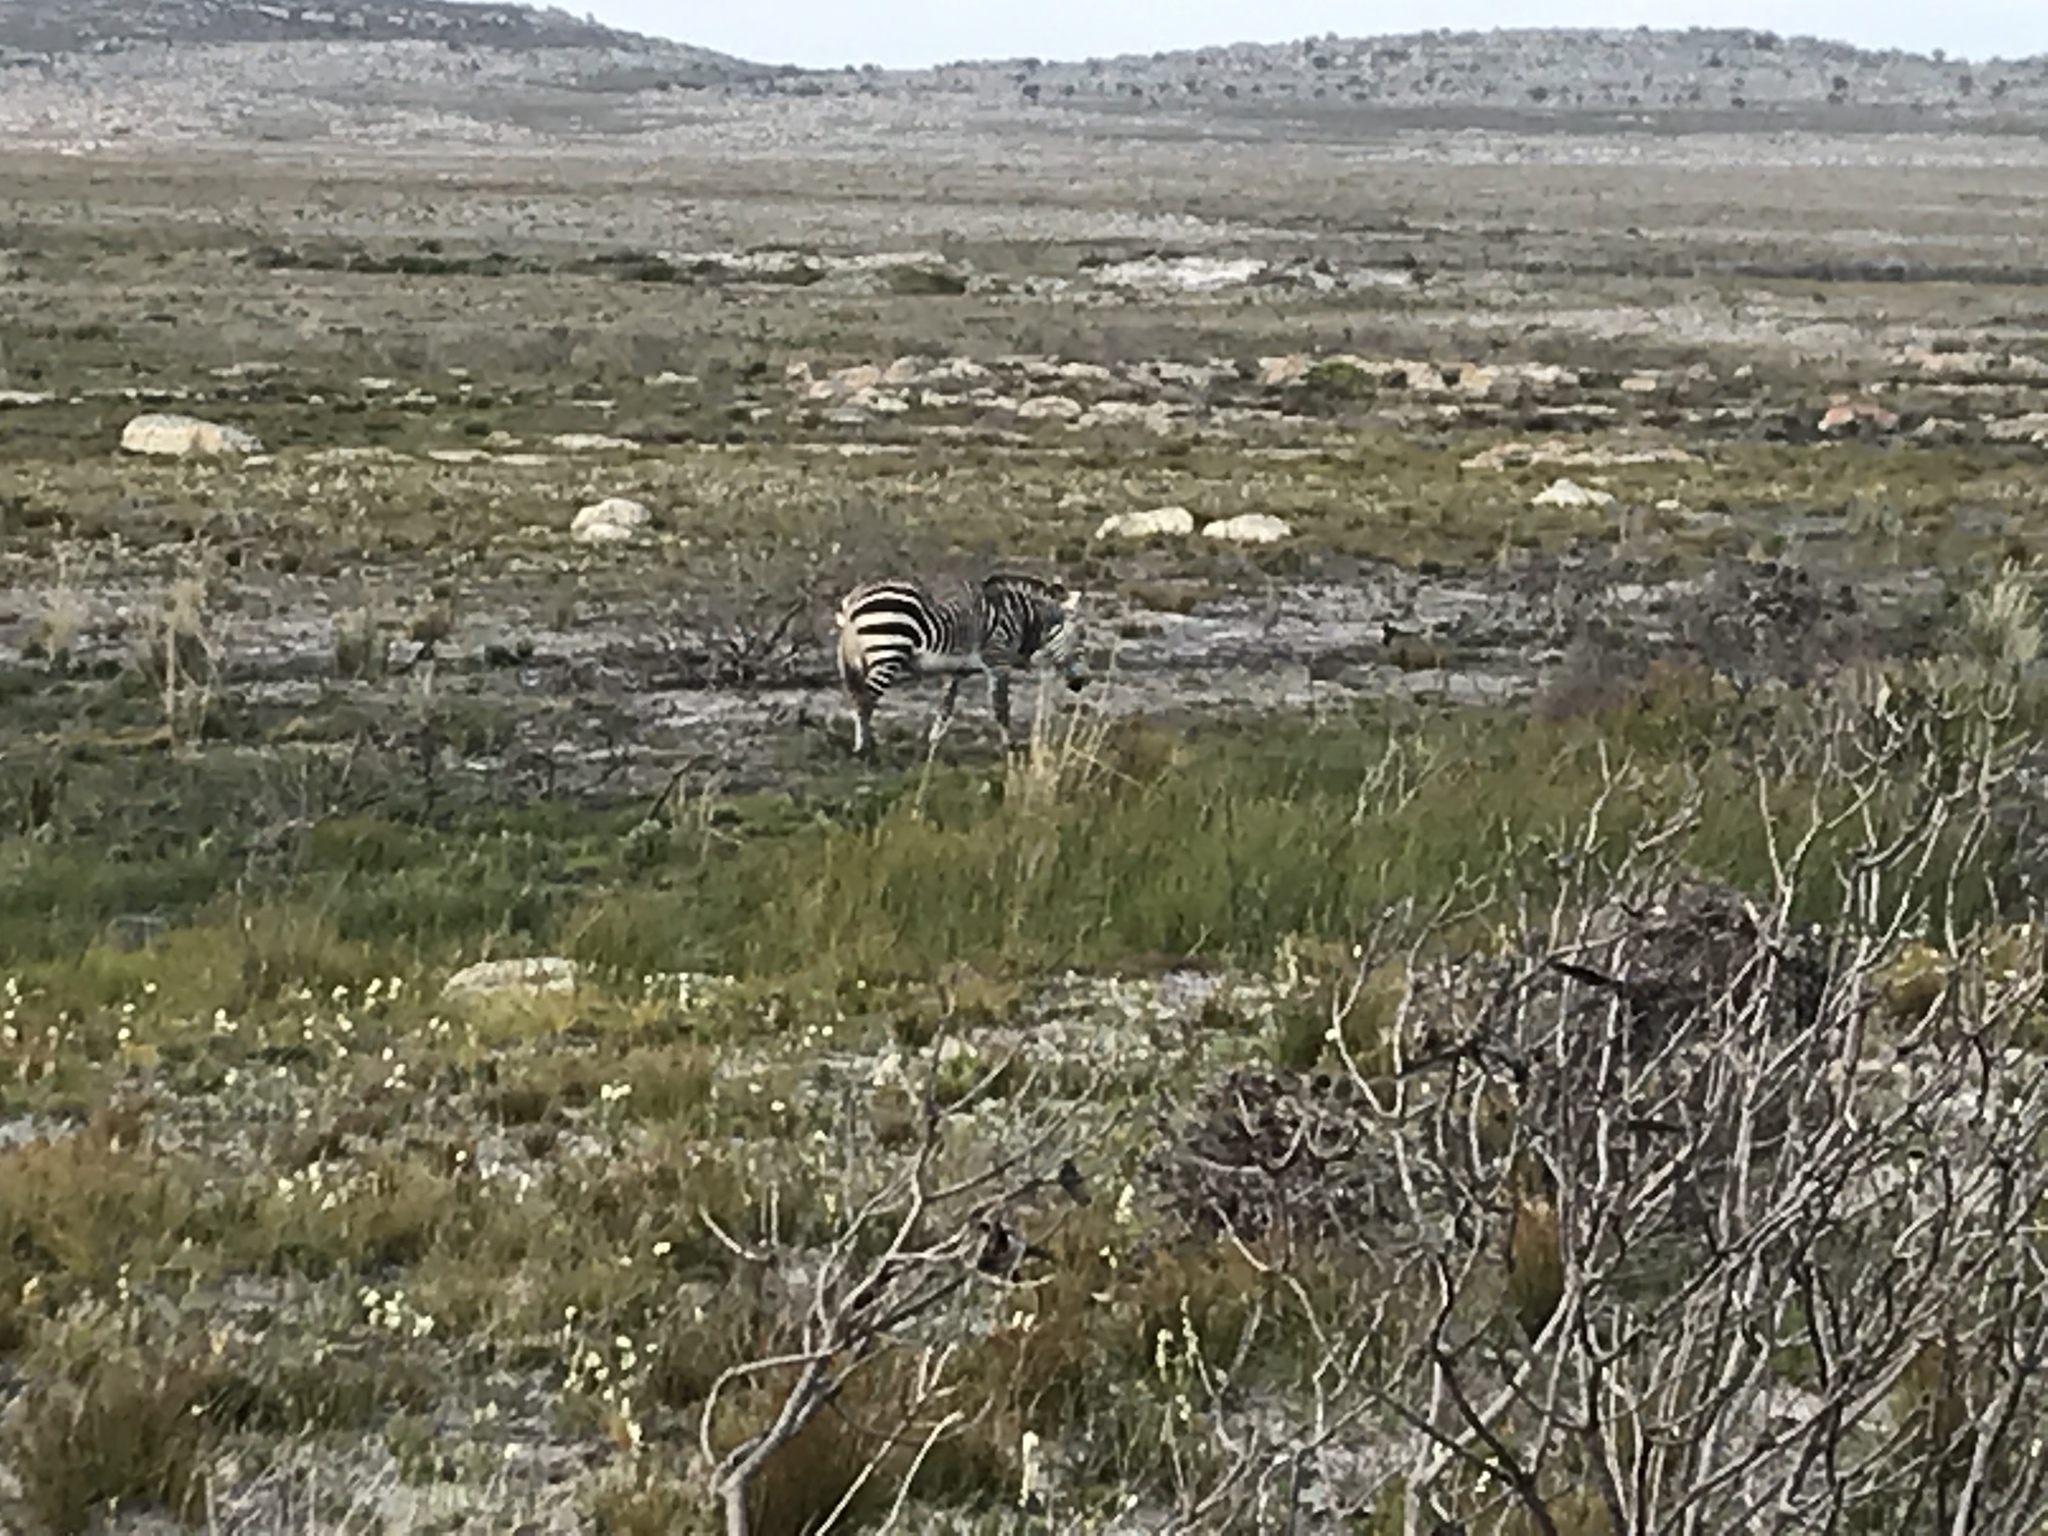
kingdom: Animalia
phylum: Chordata
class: Mammalia
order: Perissodactyla
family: Equidae
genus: Equus
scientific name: Equus zebra
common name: Mountain zebra
